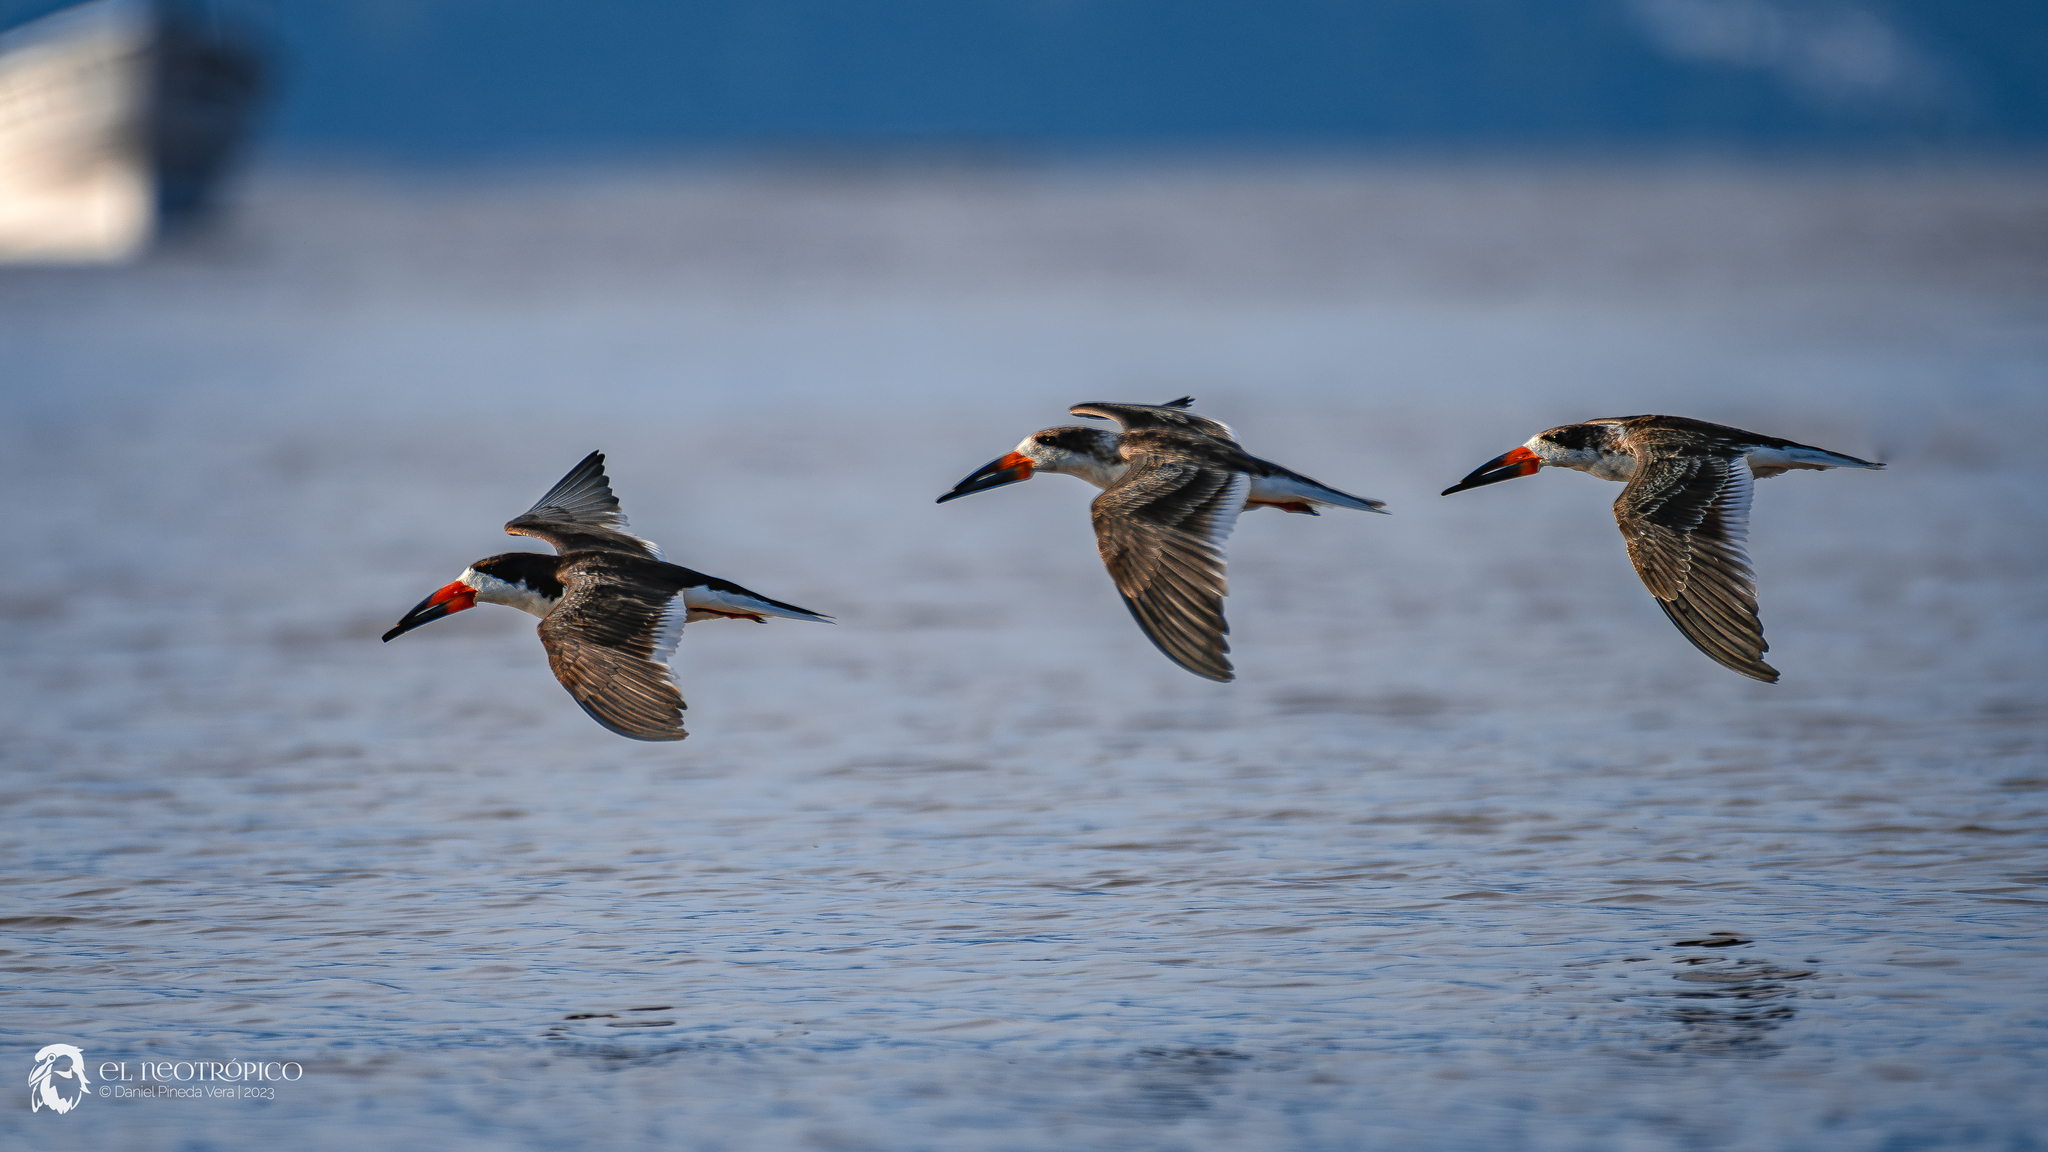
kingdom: Animalia
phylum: Chordata
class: Aves
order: Charadriiformes
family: Laridae
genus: Rynchops
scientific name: Rynchops niger
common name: Black skimmer
